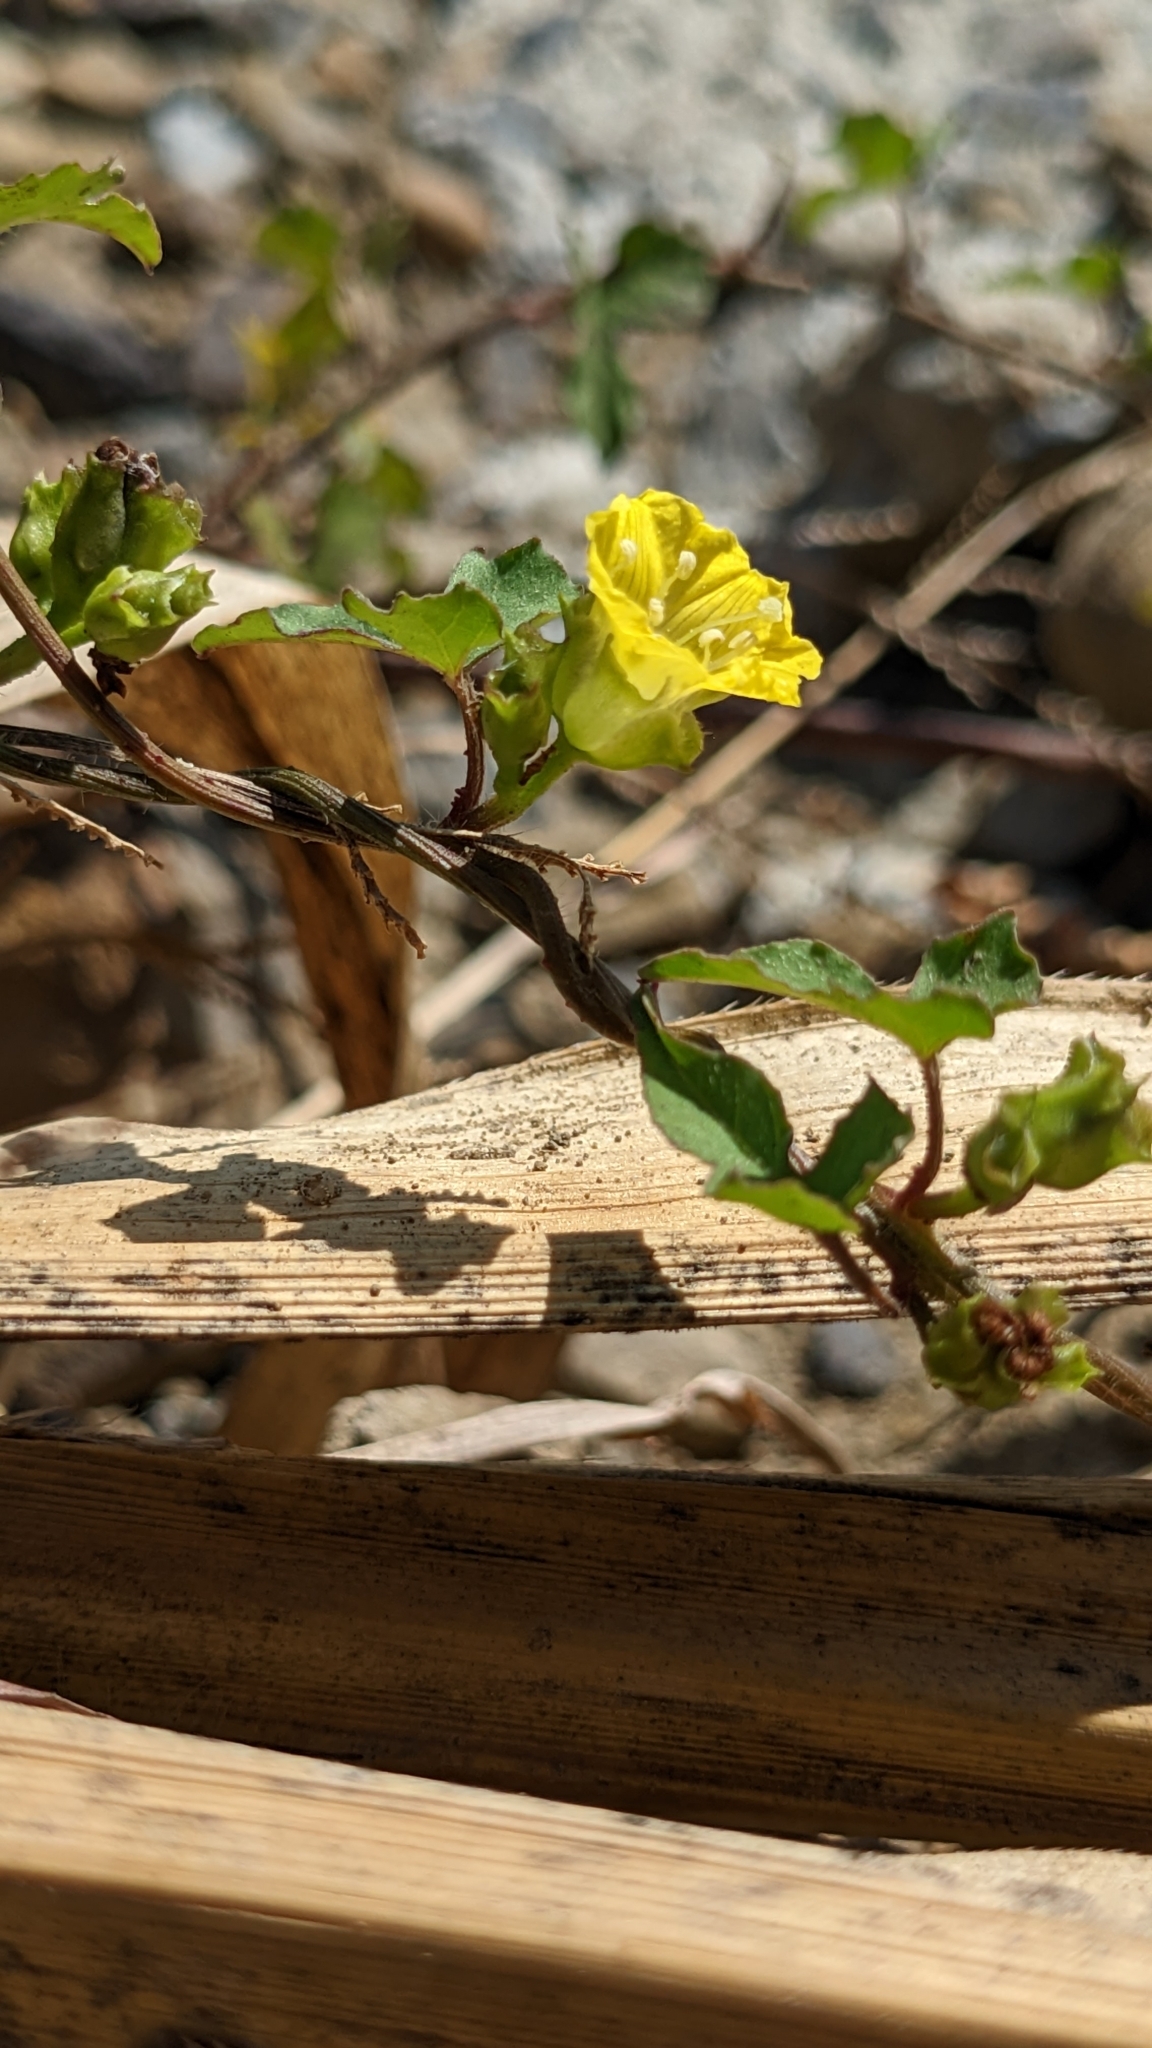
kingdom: Plantae
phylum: Tracheophyta
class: Magnoliopsida
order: Solanales
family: Convolvulaceae
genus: Merremia
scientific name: Merremia hederacea
